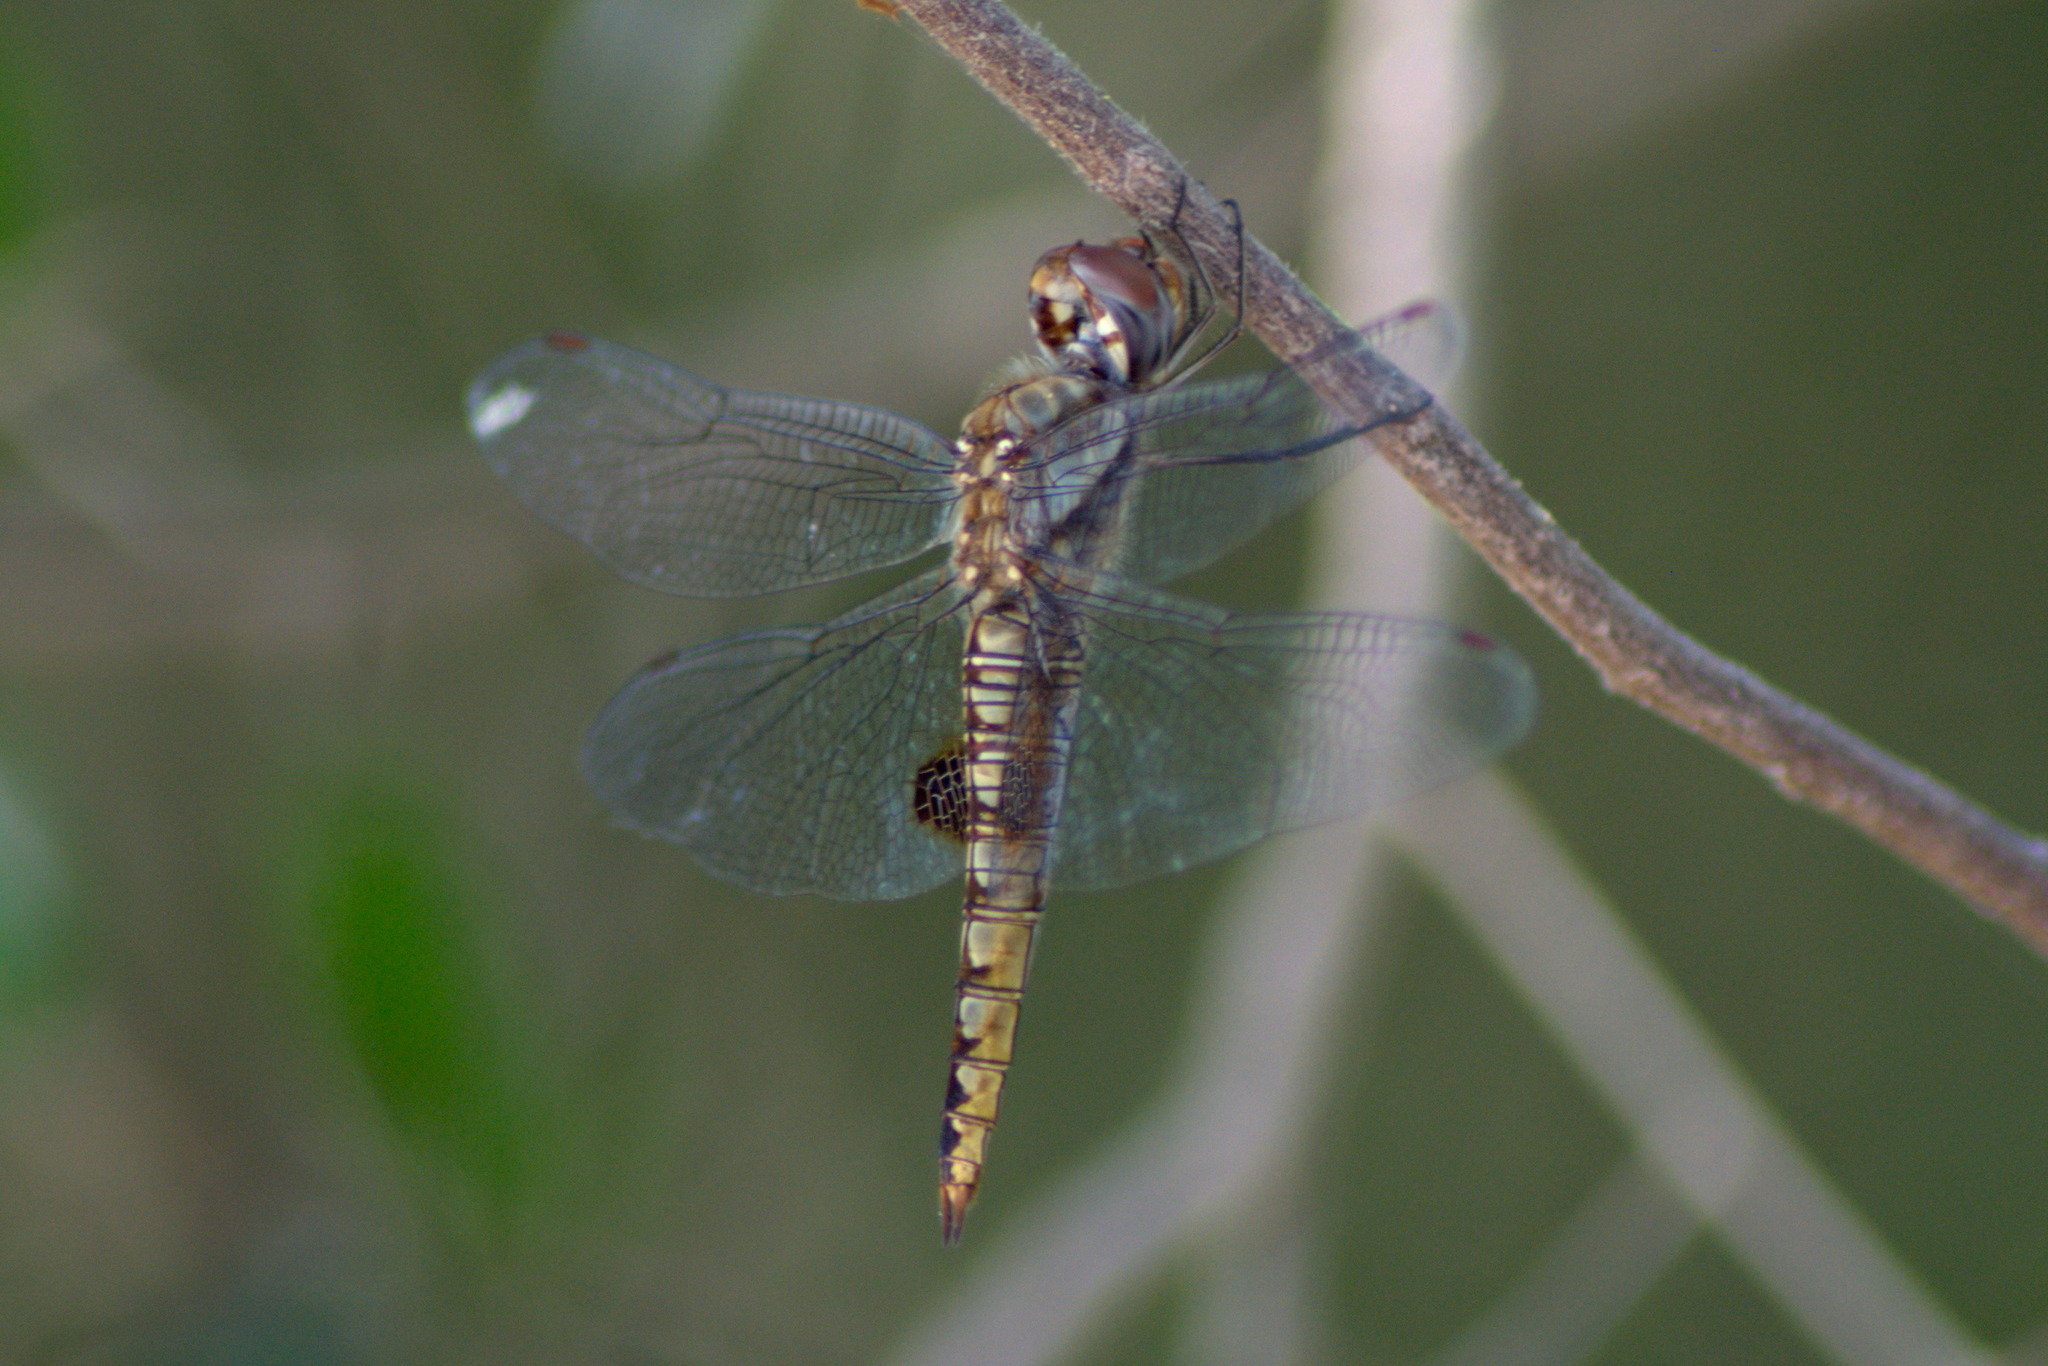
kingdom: Animalia
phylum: Arthropoda
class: Insecta
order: Odonata
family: Libellulidae
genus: Pantala
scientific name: Pantala hymenaea
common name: Spot-winged glider
